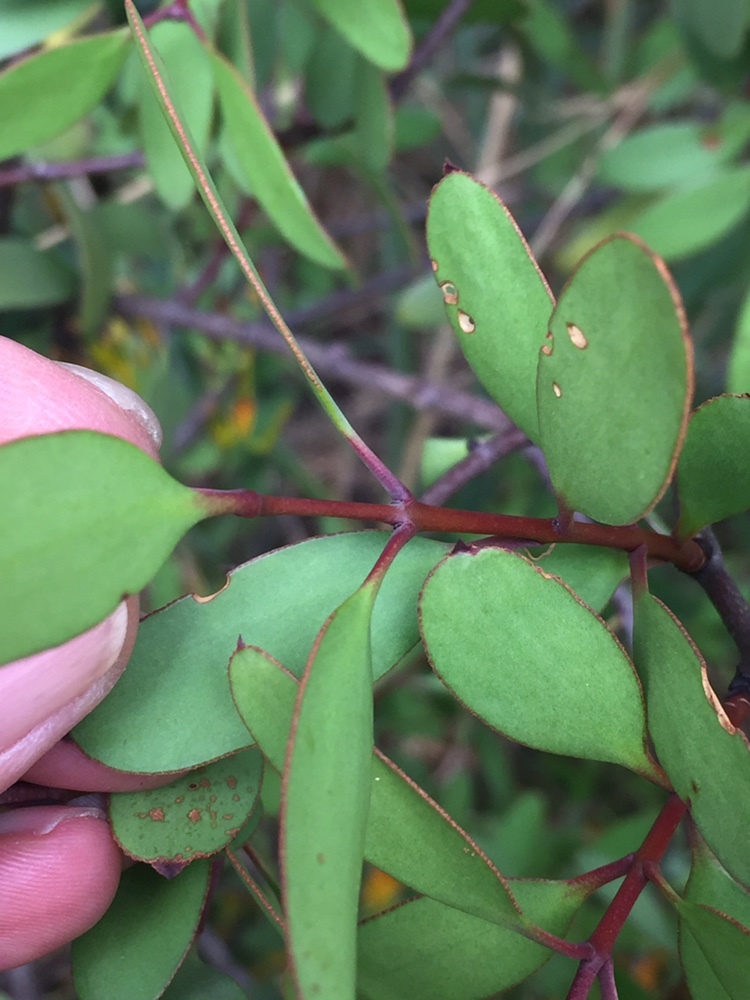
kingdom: Plantae
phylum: Tracheophyta
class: Magnoliopsida
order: Santalales
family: Loranthaceae
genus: Alepis
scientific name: Alepis flavida
